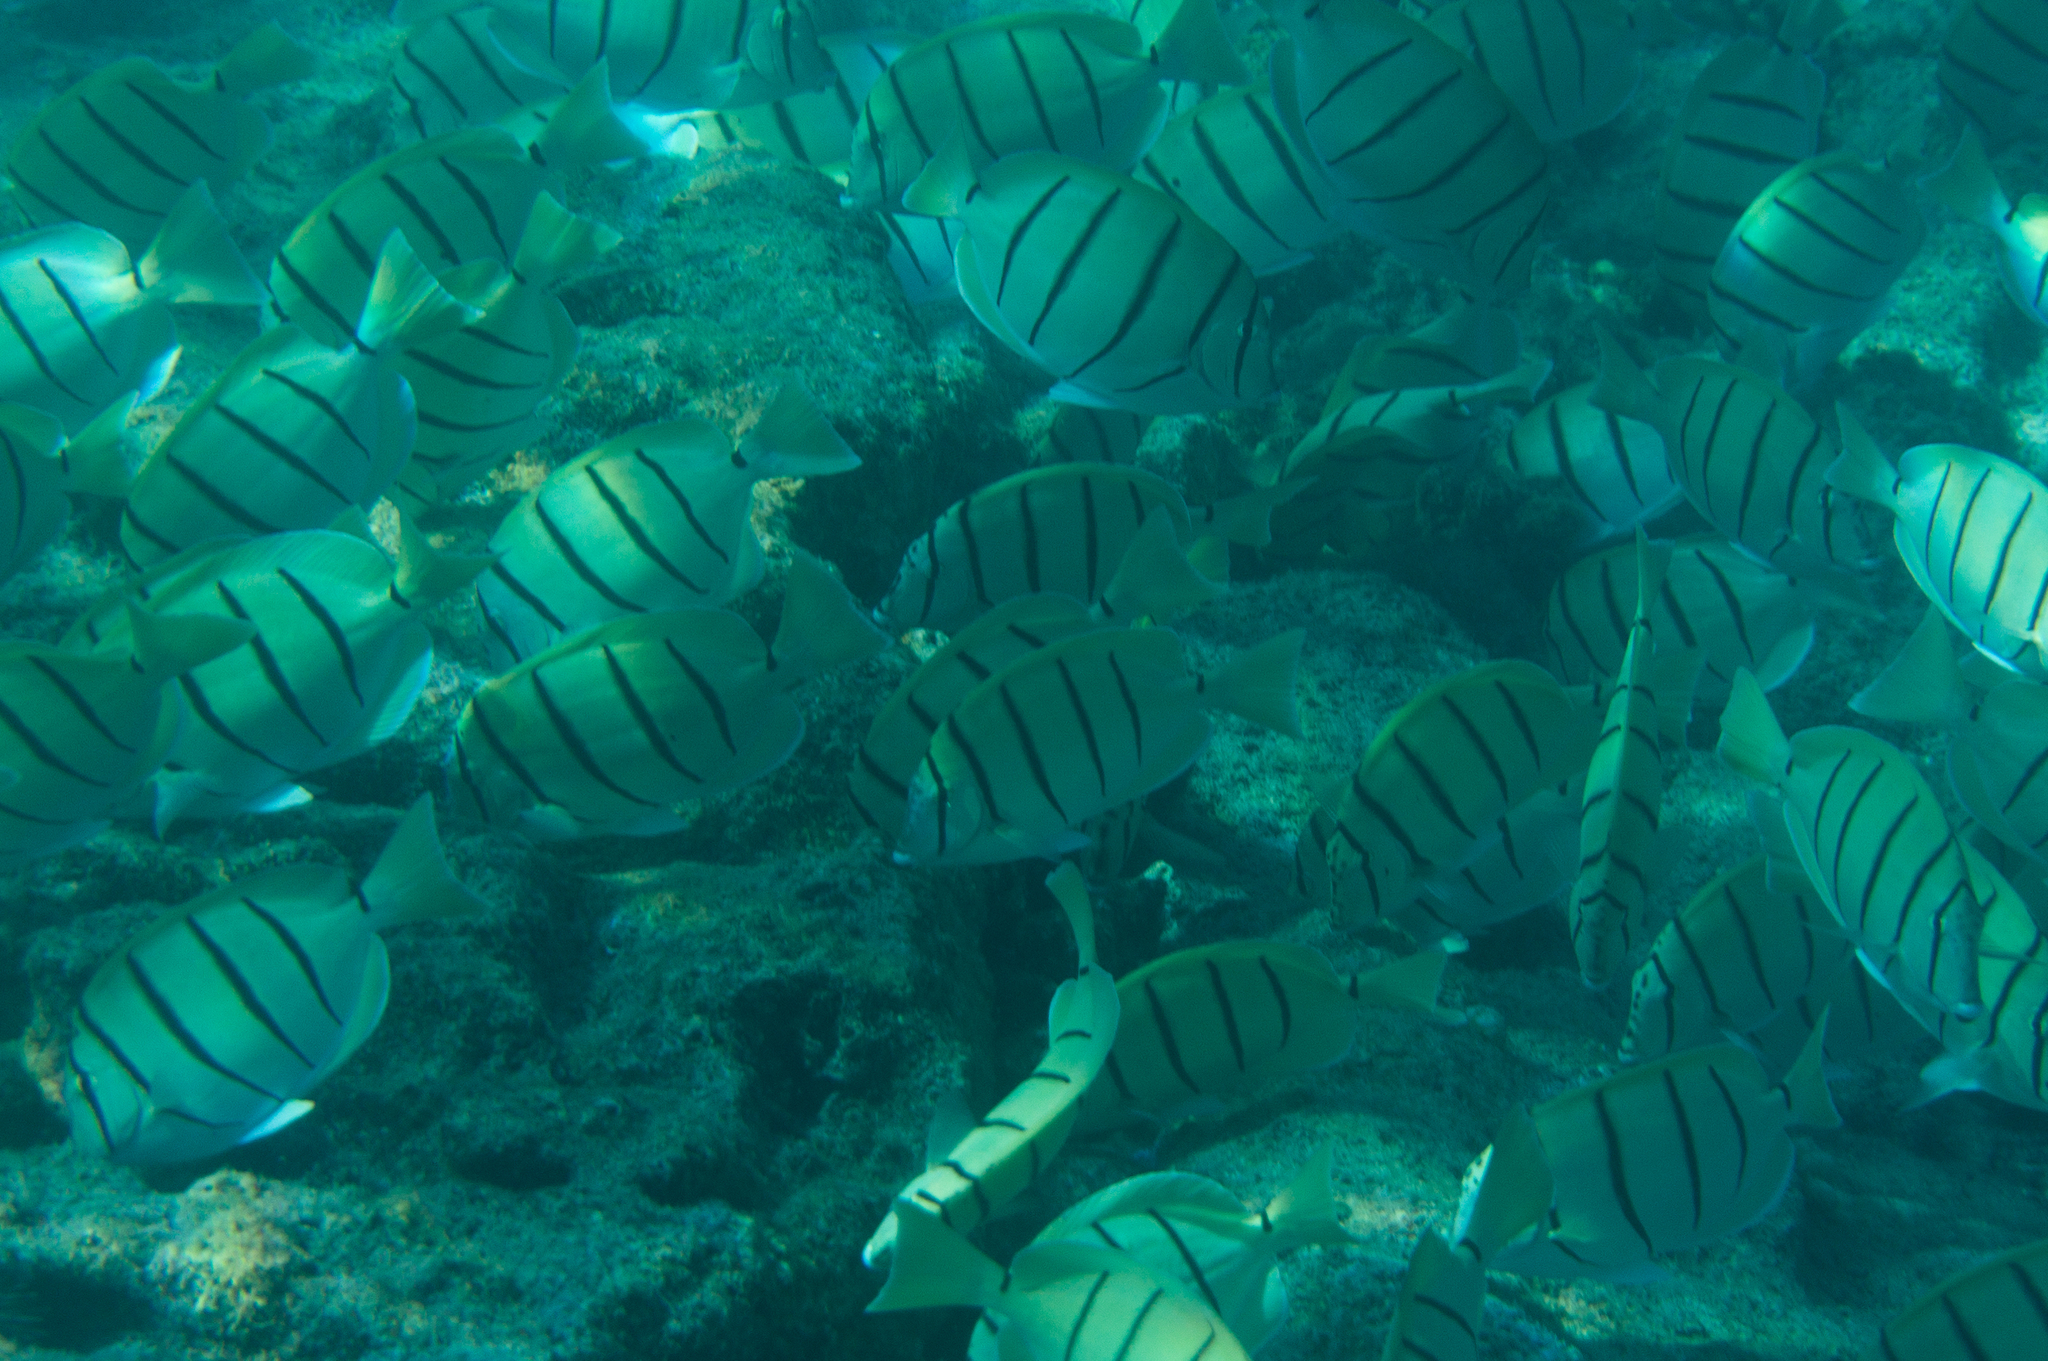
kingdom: Animalia
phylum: Chordata
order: Perciformes
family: Acanthuridae
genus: Acanthurus
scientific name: Acanthurus triostegus
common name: Convict surgeonfish
